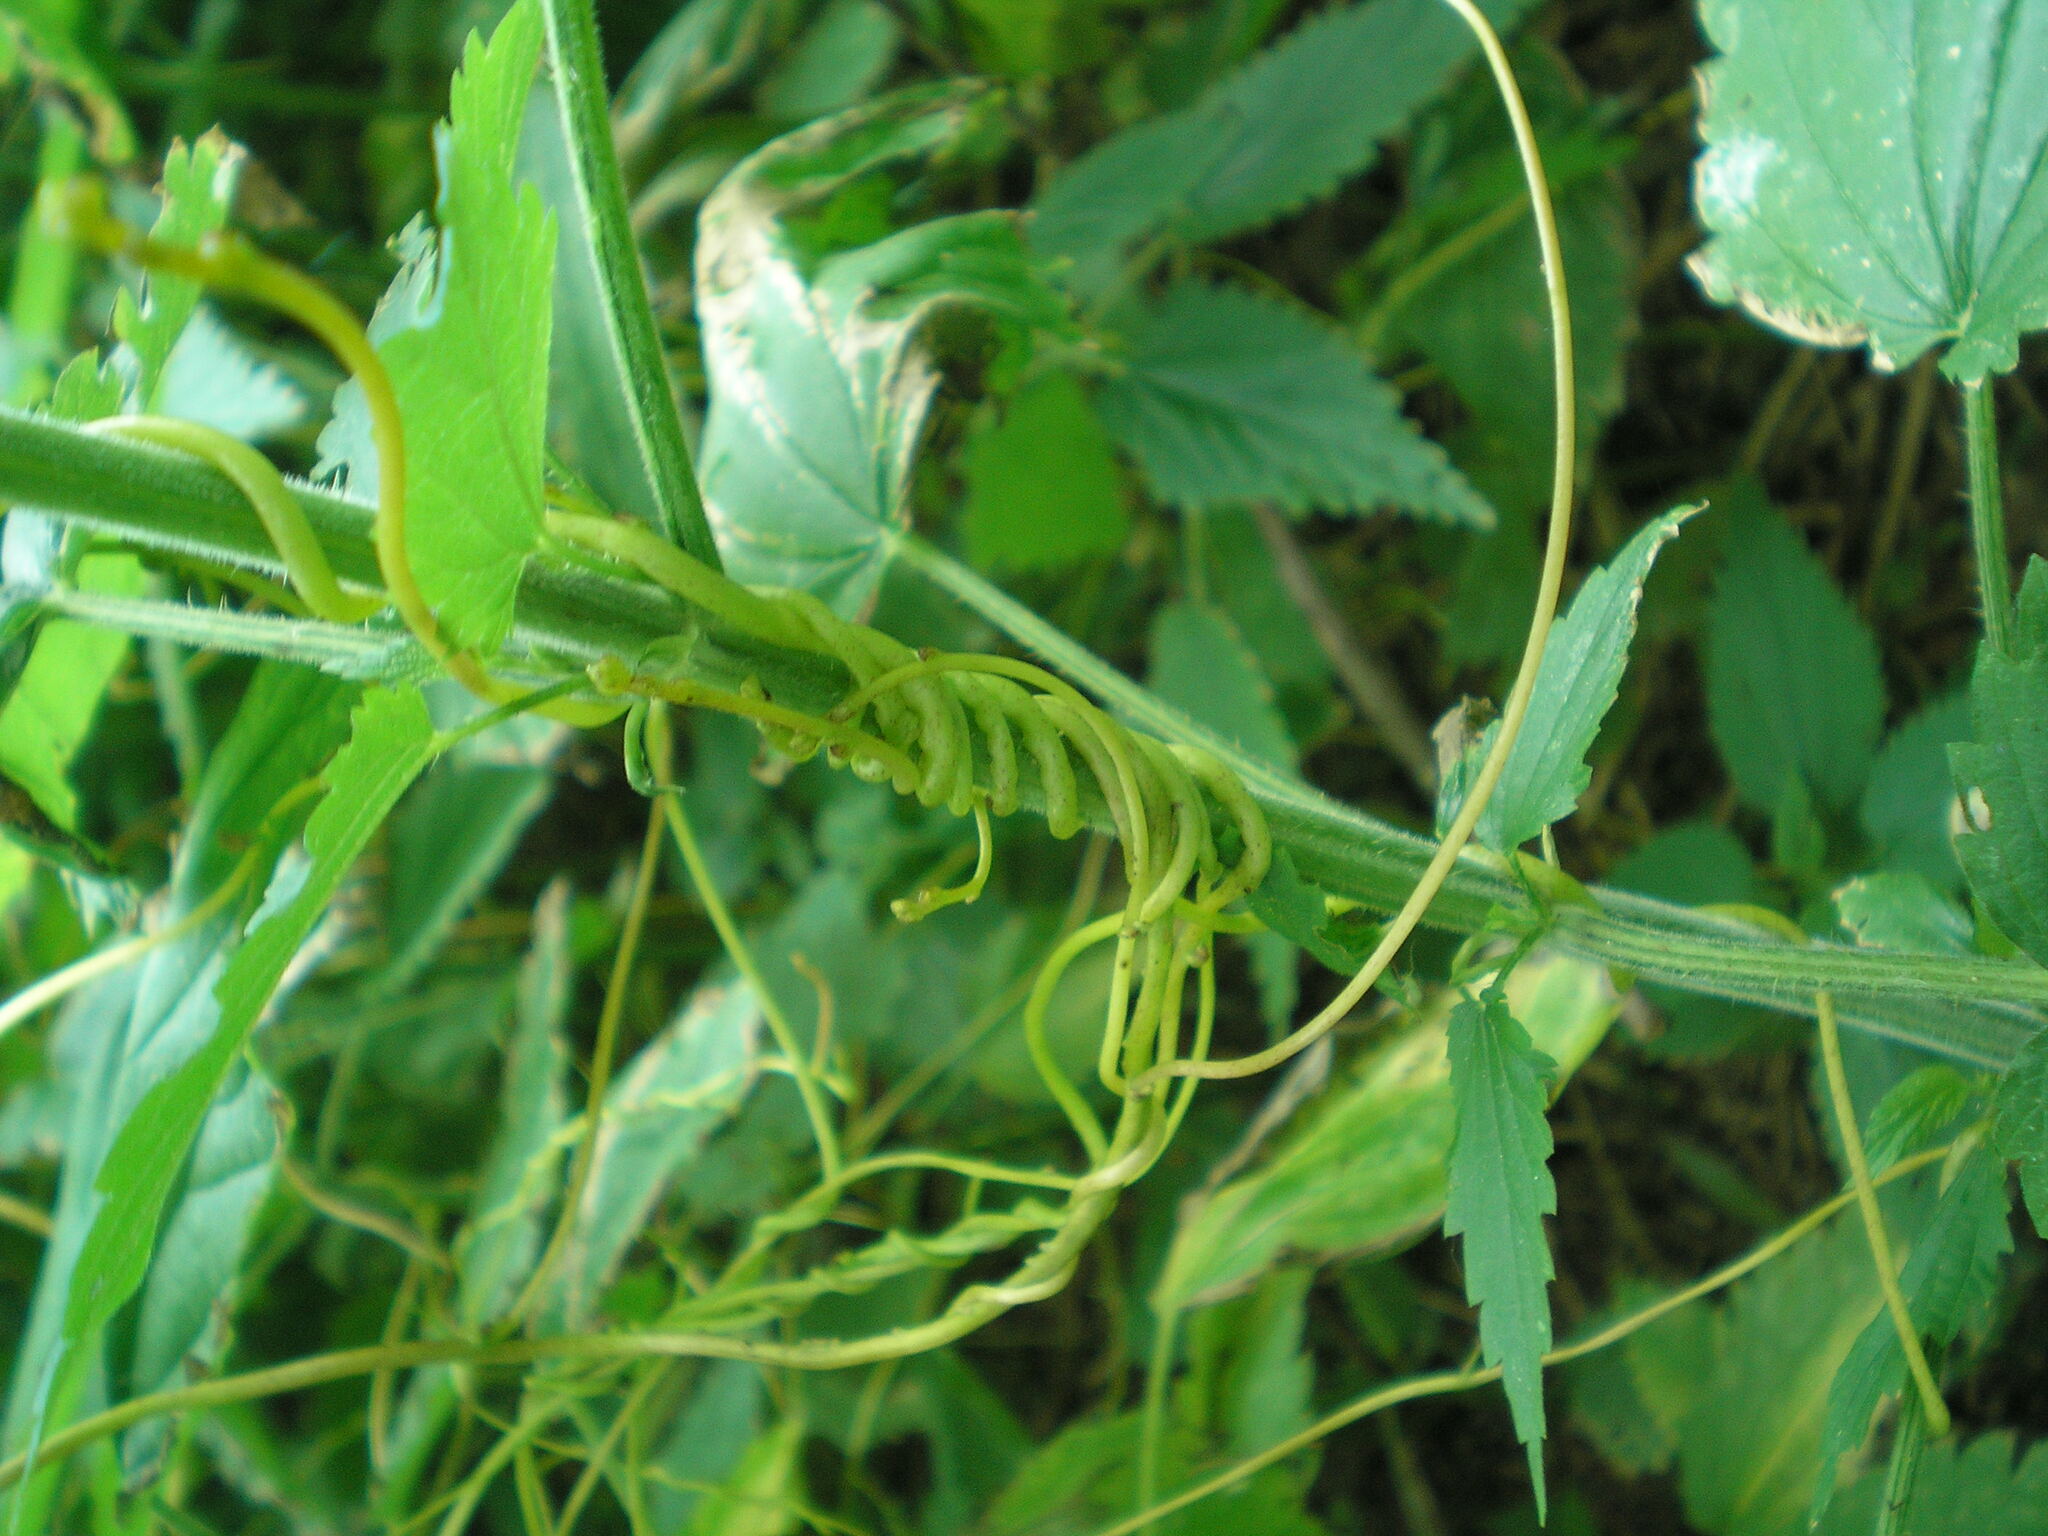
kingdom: Plantae
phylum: Tracheophyta
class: Magnoliopsida
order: Solanales
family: Convolvulaceae
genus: Cuscuta
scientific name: Cuscuta lupuliformis
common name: Hop dodder
